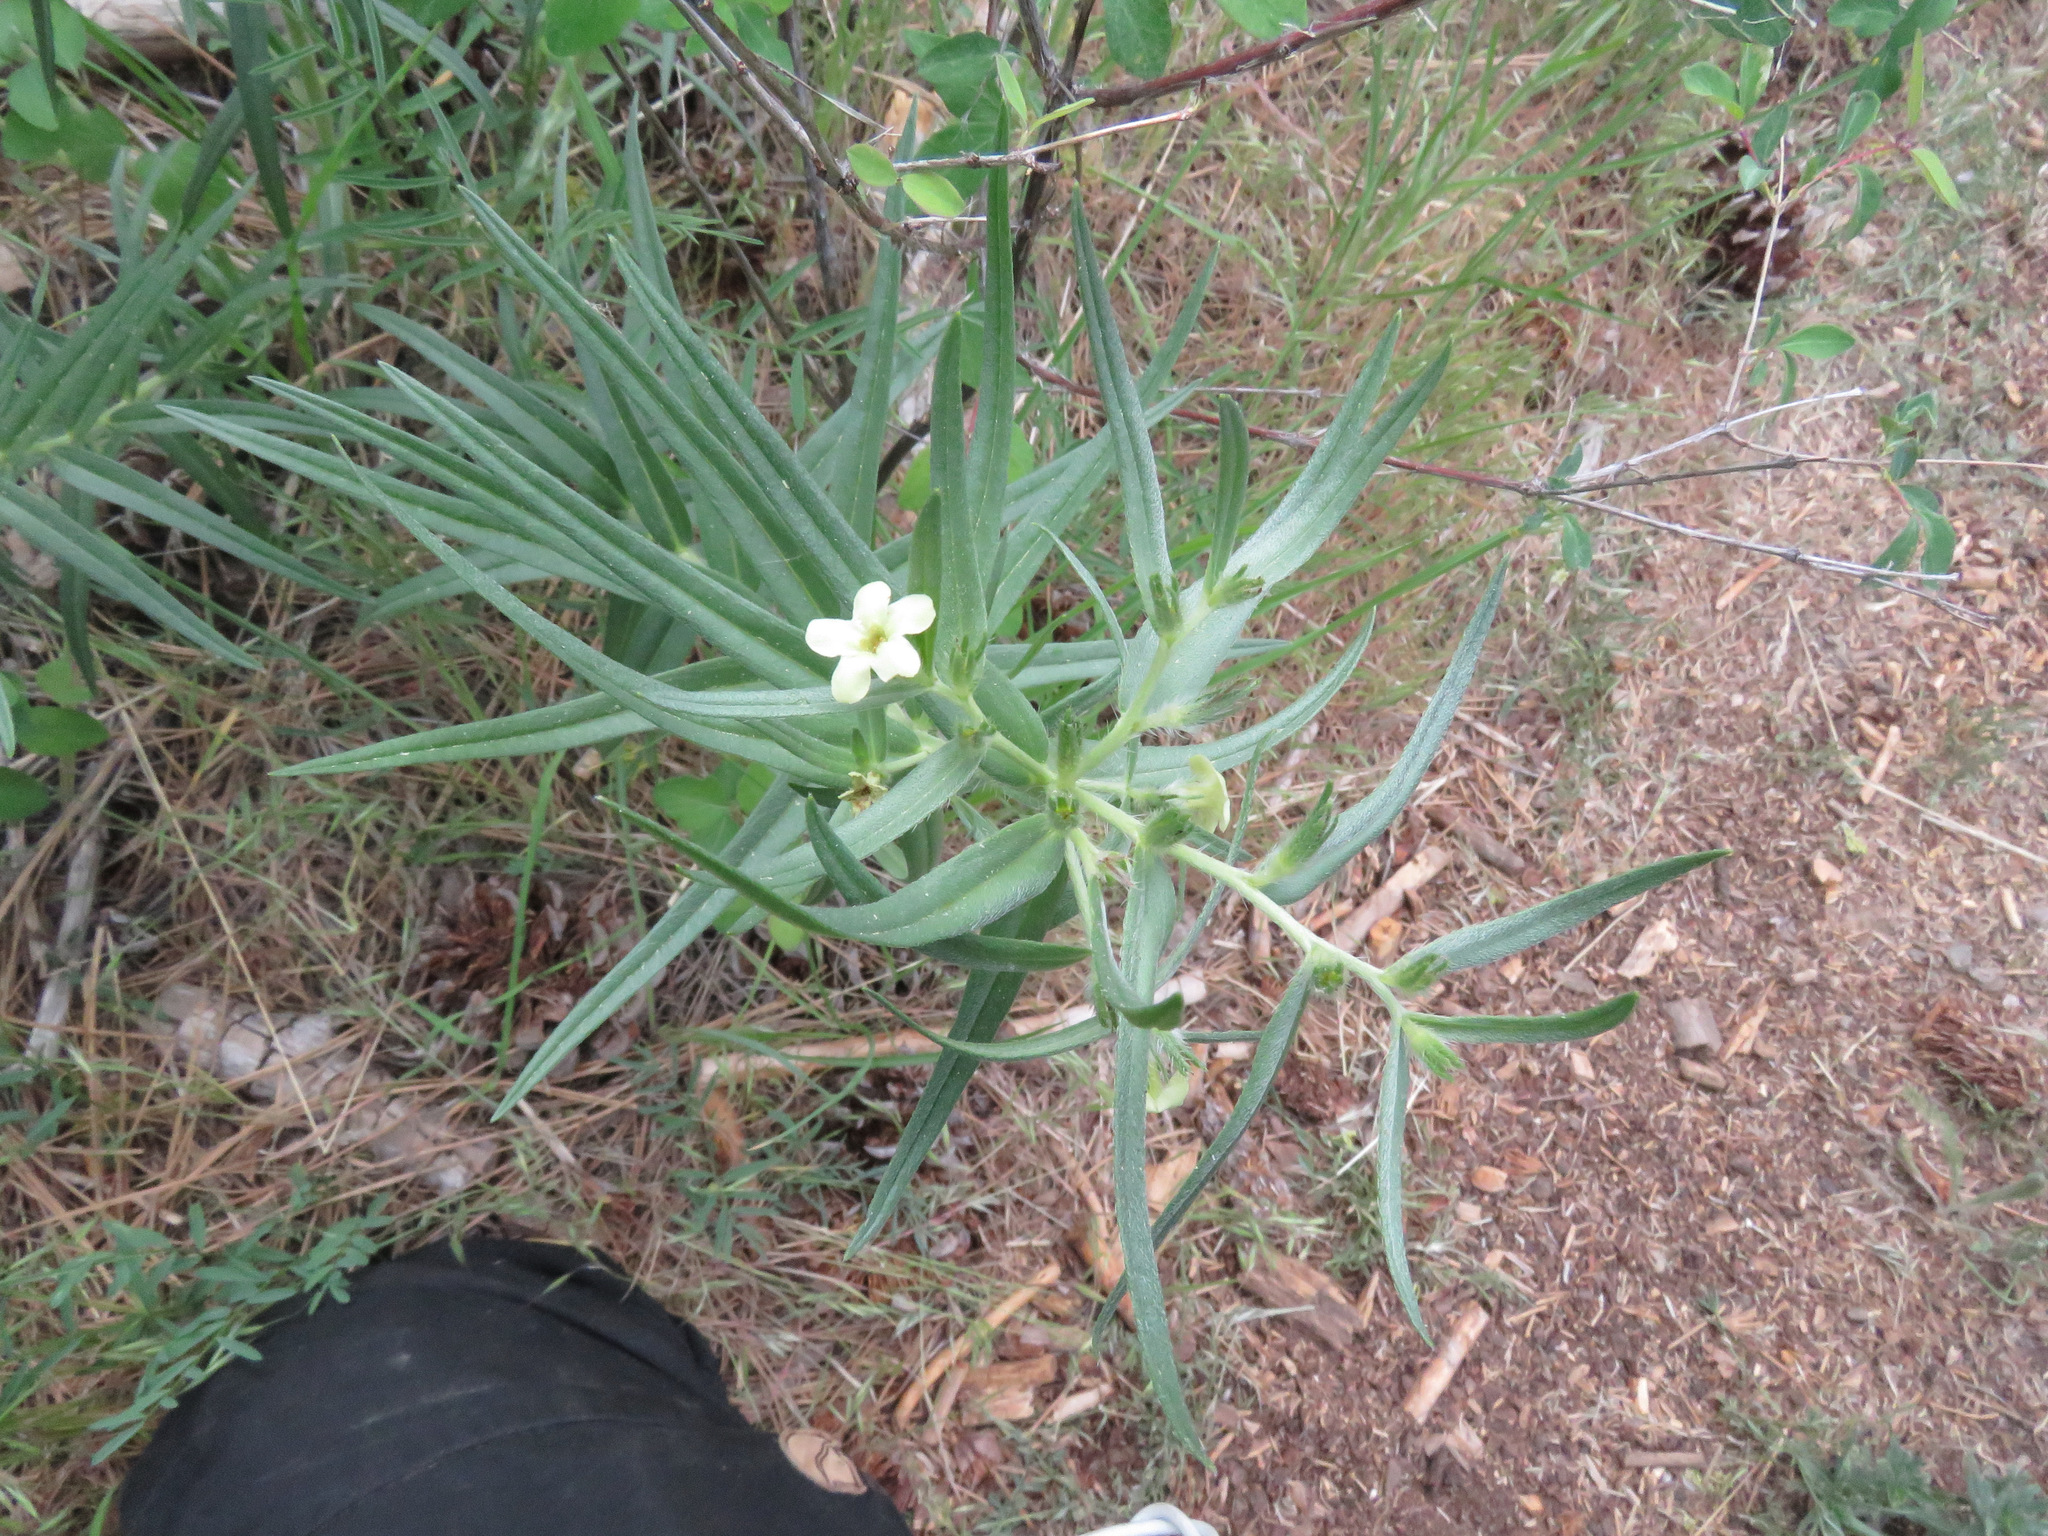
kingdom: Plantae
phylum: Tracheophyta
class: Magnoliopsida
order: Boraginales
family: Boraginaceae
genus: Lithospermum
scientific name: Lithospermum ruderale
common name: Western gromwell
